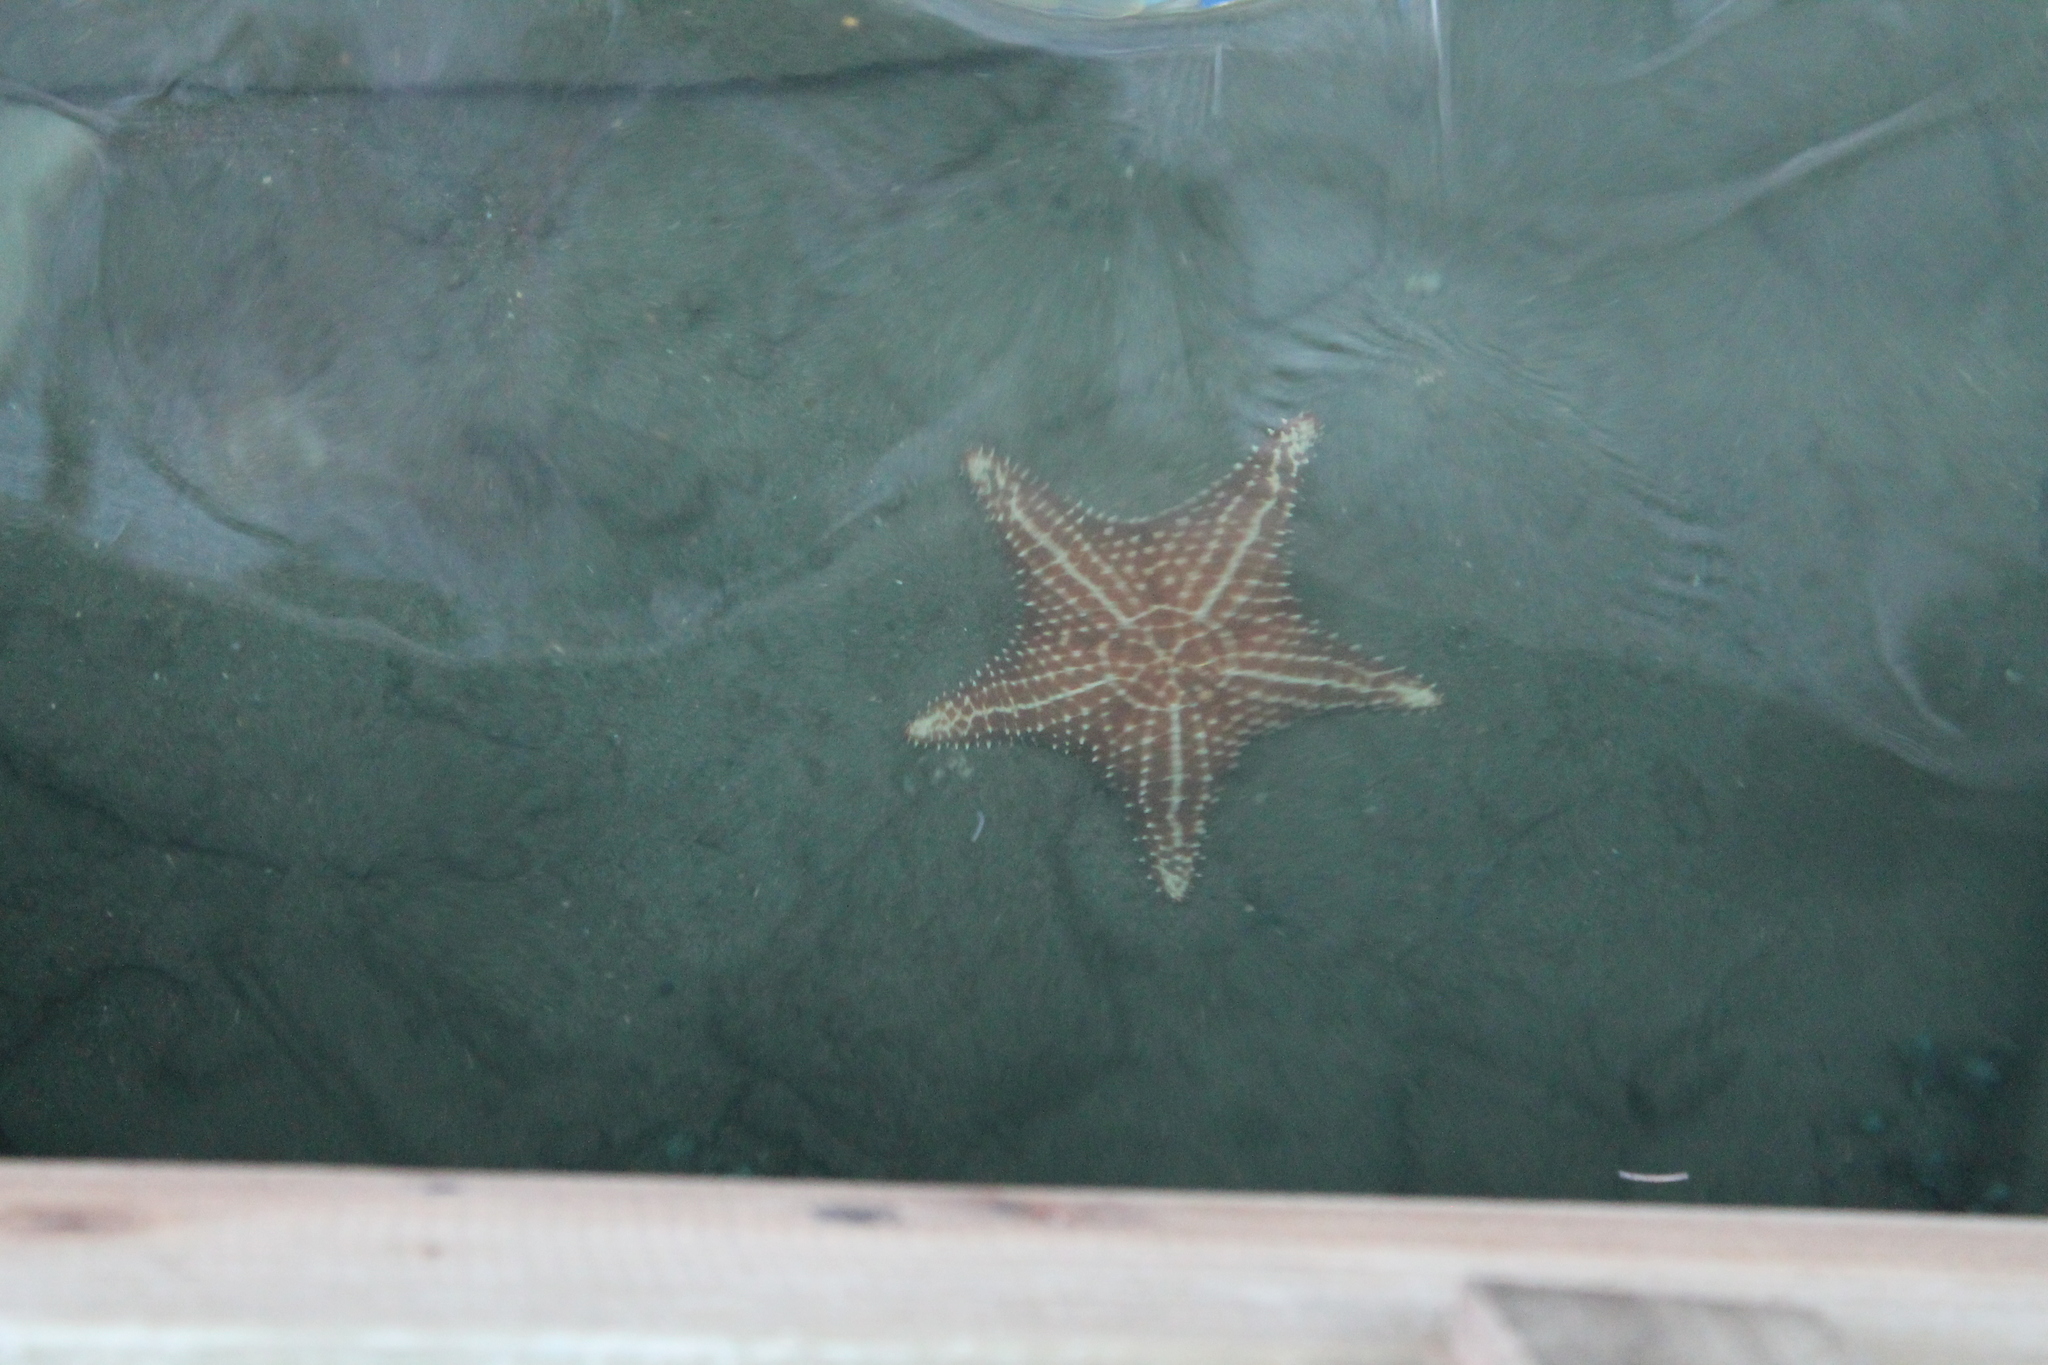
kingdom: Animalia
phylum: Echinodermata
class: Asteroidea
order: Valvatida
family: Oreasteridae
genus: Oreaster
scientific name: Oreaster reticulatus
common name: Cushion sea star
